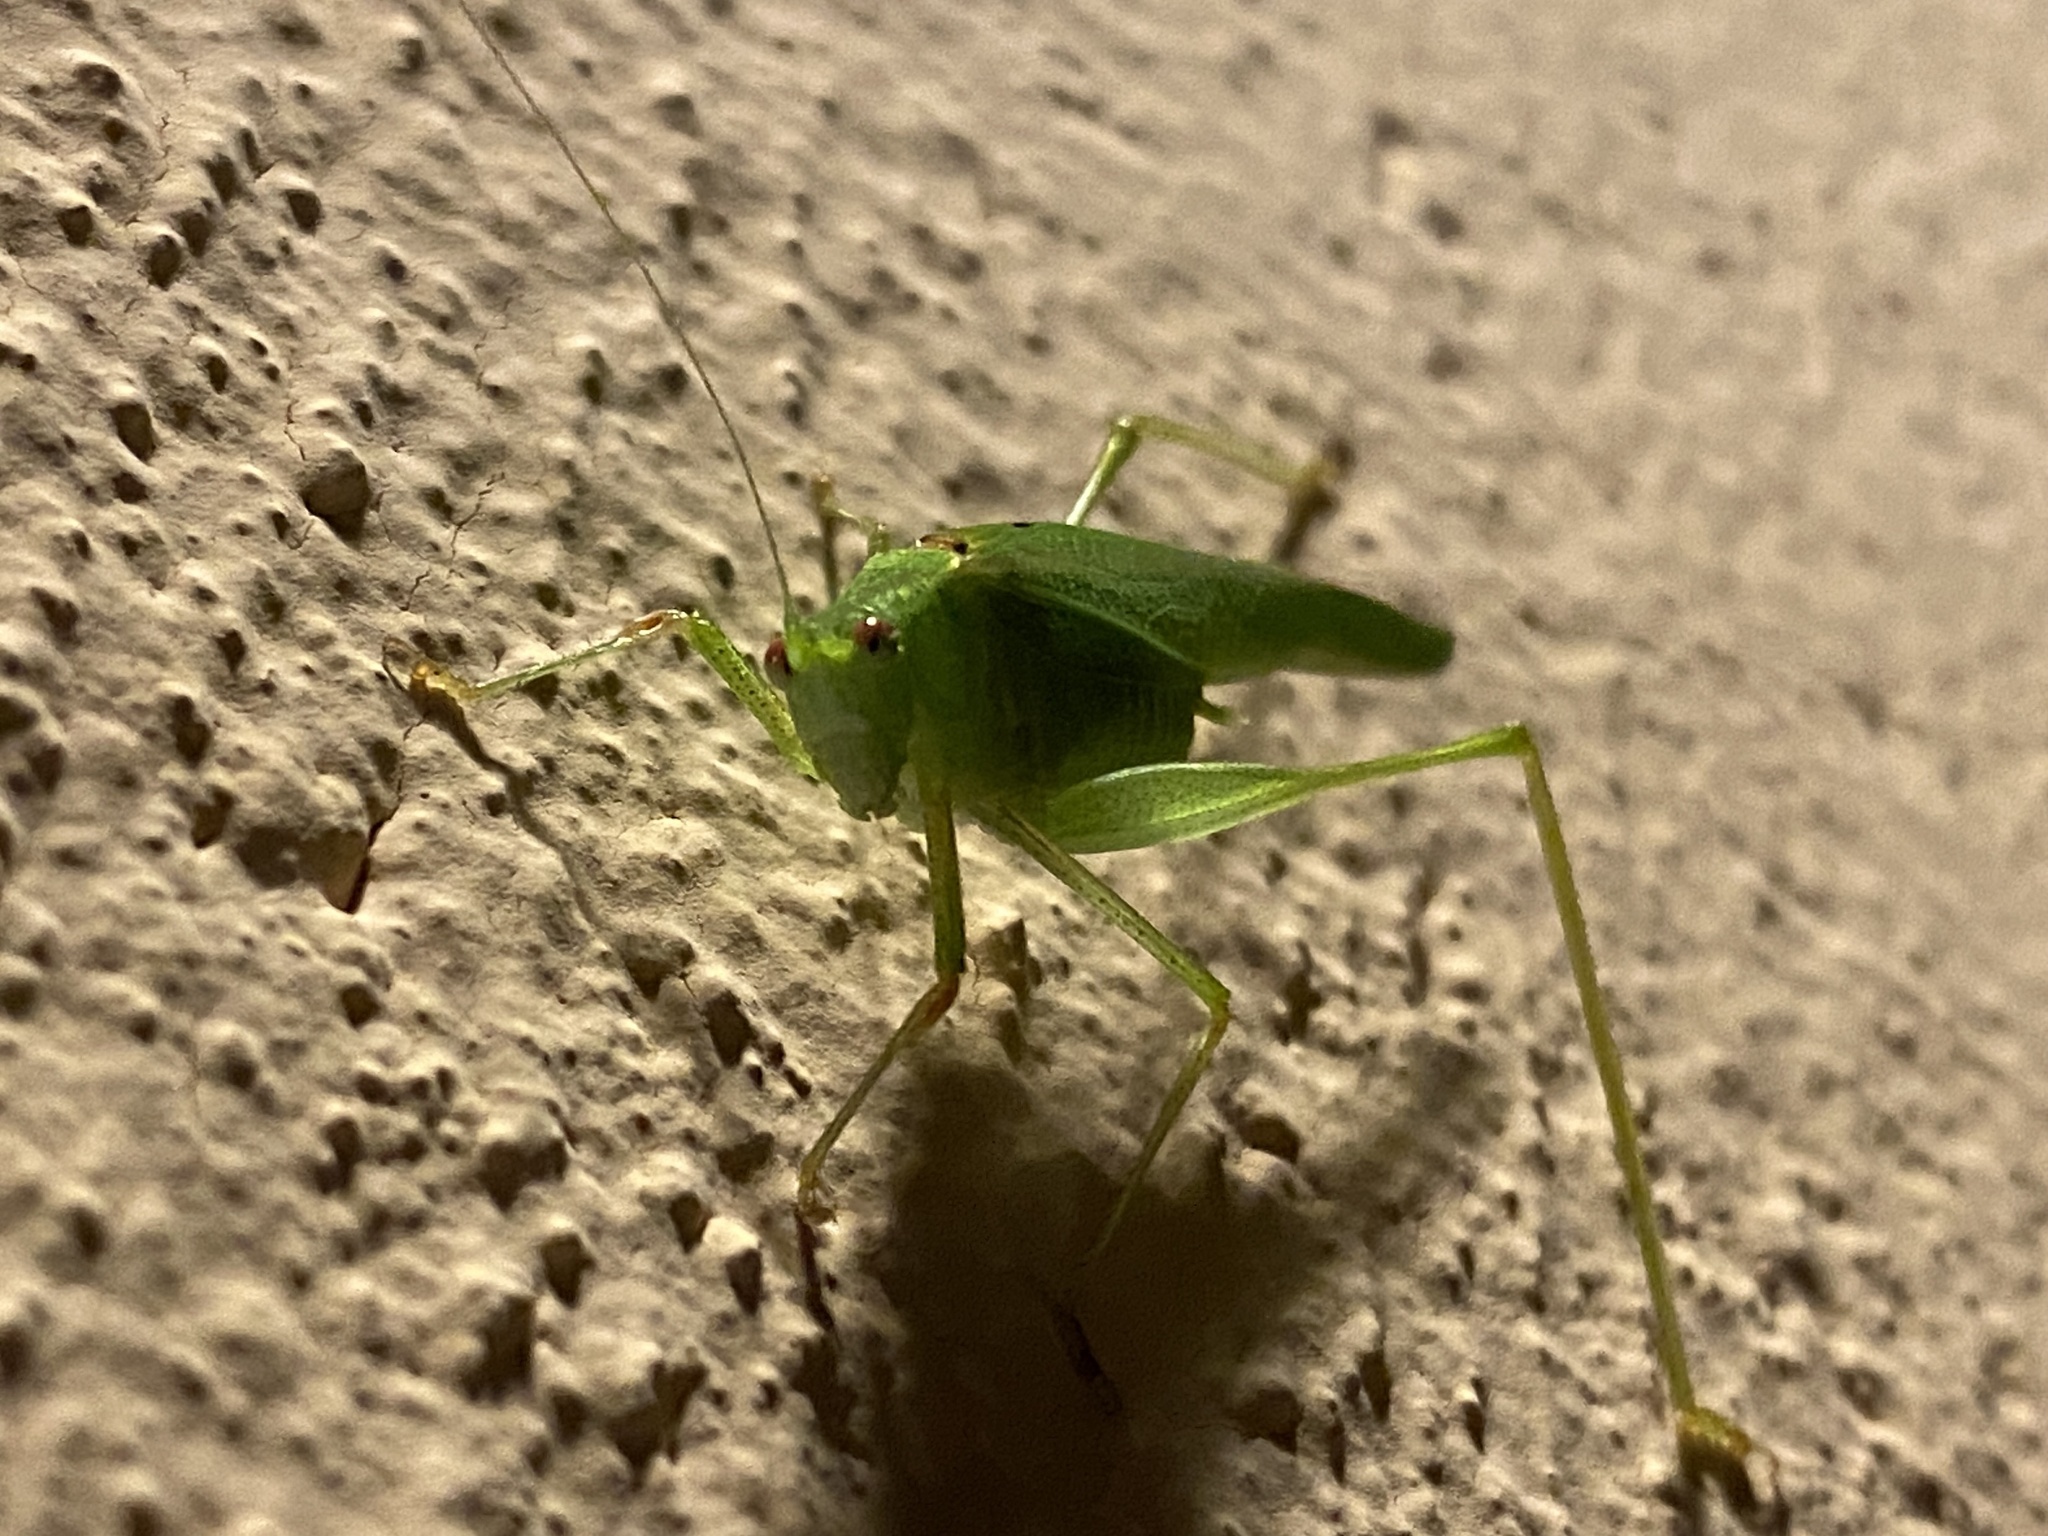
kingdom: Animalia
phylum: Arthropoda
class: Insecta
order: Orthoptera
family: Tettigoniidae
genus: Phaneroptera
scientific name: Phaneroptera nana
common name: Southern sickle bush-cricket
